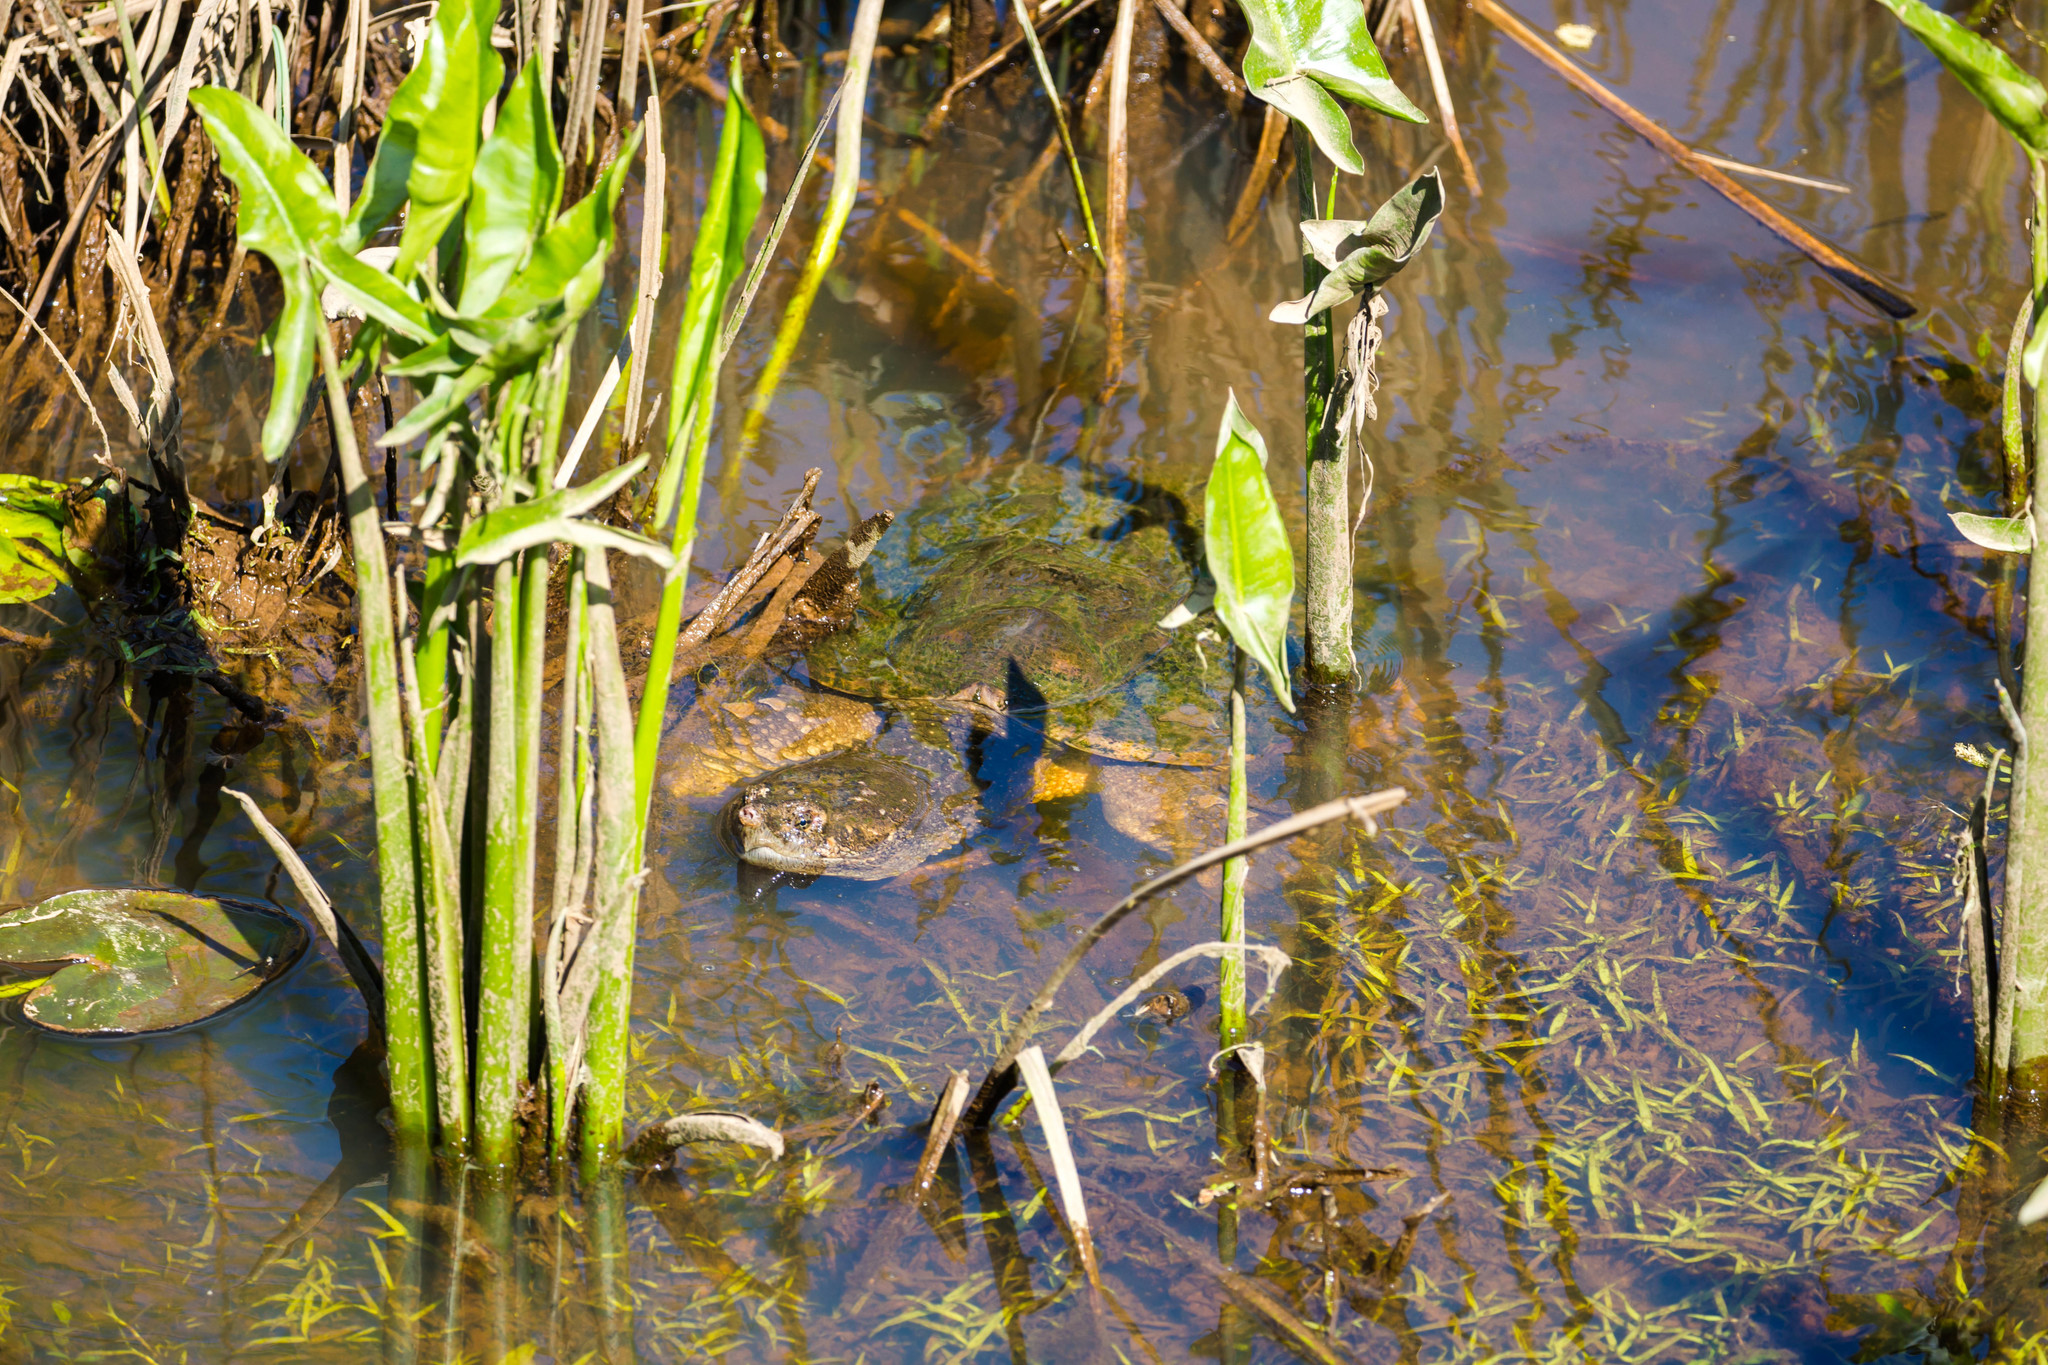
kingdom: Animalia
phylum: Chordata
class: Testudines
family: Chelydridae
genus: Chelydra
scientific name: Chelydra serpentina
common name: Common snapping turtle
